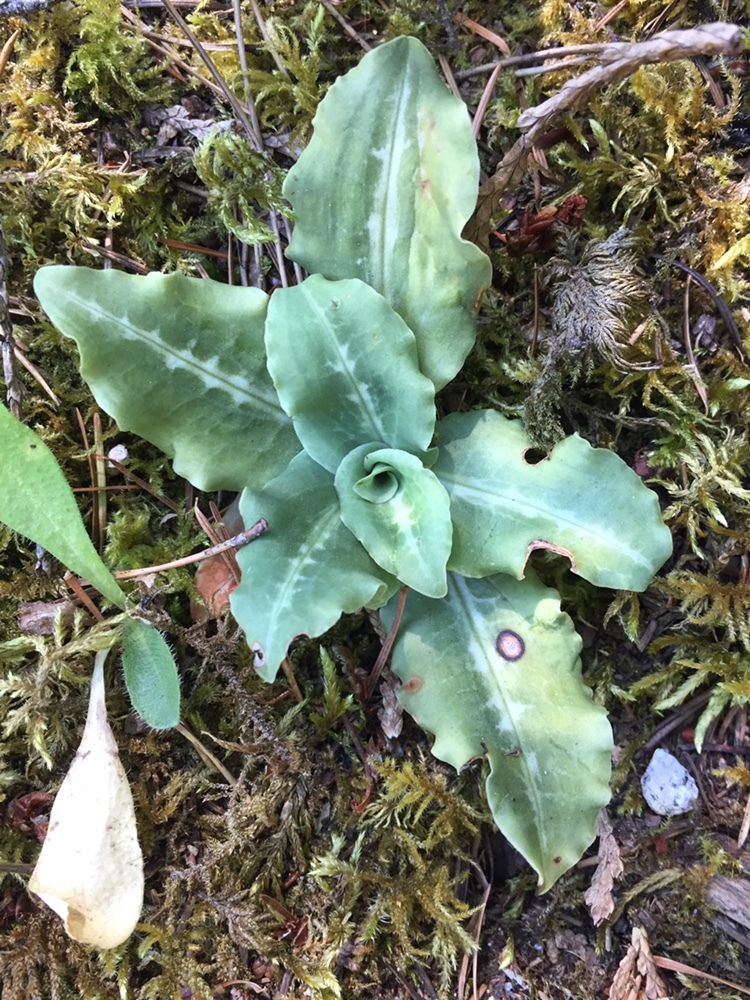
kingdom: Plantae
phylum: Tracheophyta
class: Liliopsida
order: Asparagales
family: Orchidaceae
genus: Goodyera
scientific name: Goodyera oblongifolia
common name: Giant rattlesnake-plantain
